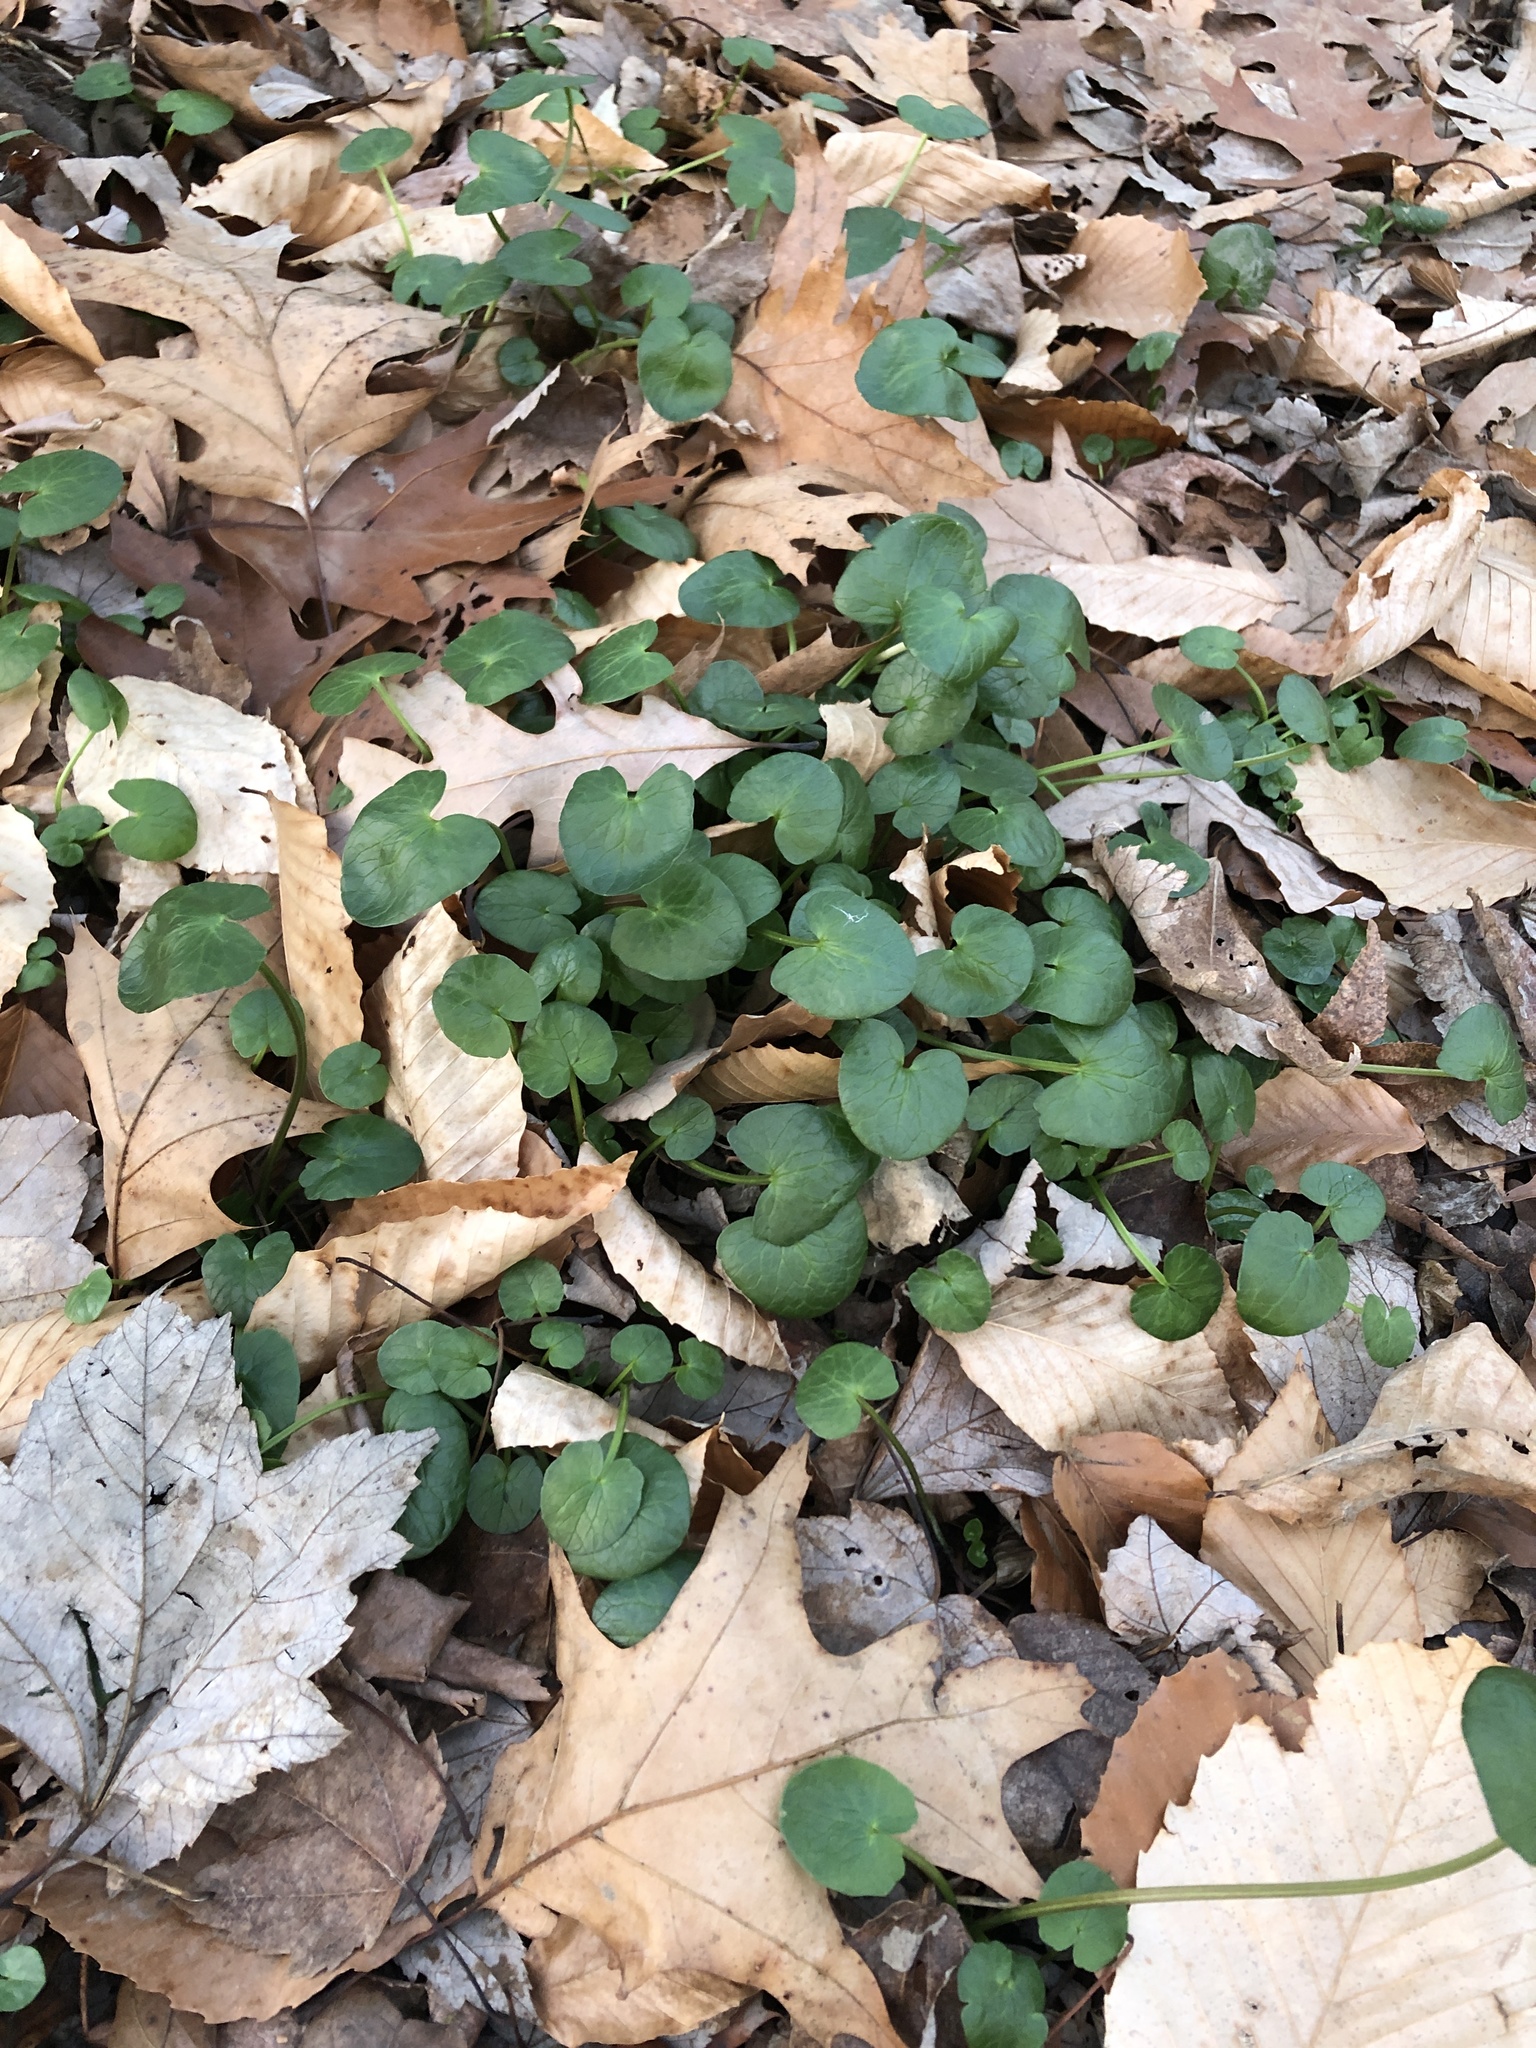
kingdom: Plantae
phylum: Tracheophyta
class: Magnoliopsida
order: Ranunculales
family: Ranunculaceae
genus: Ficaria
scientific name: Ficaria verna
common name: Lesser celandine
